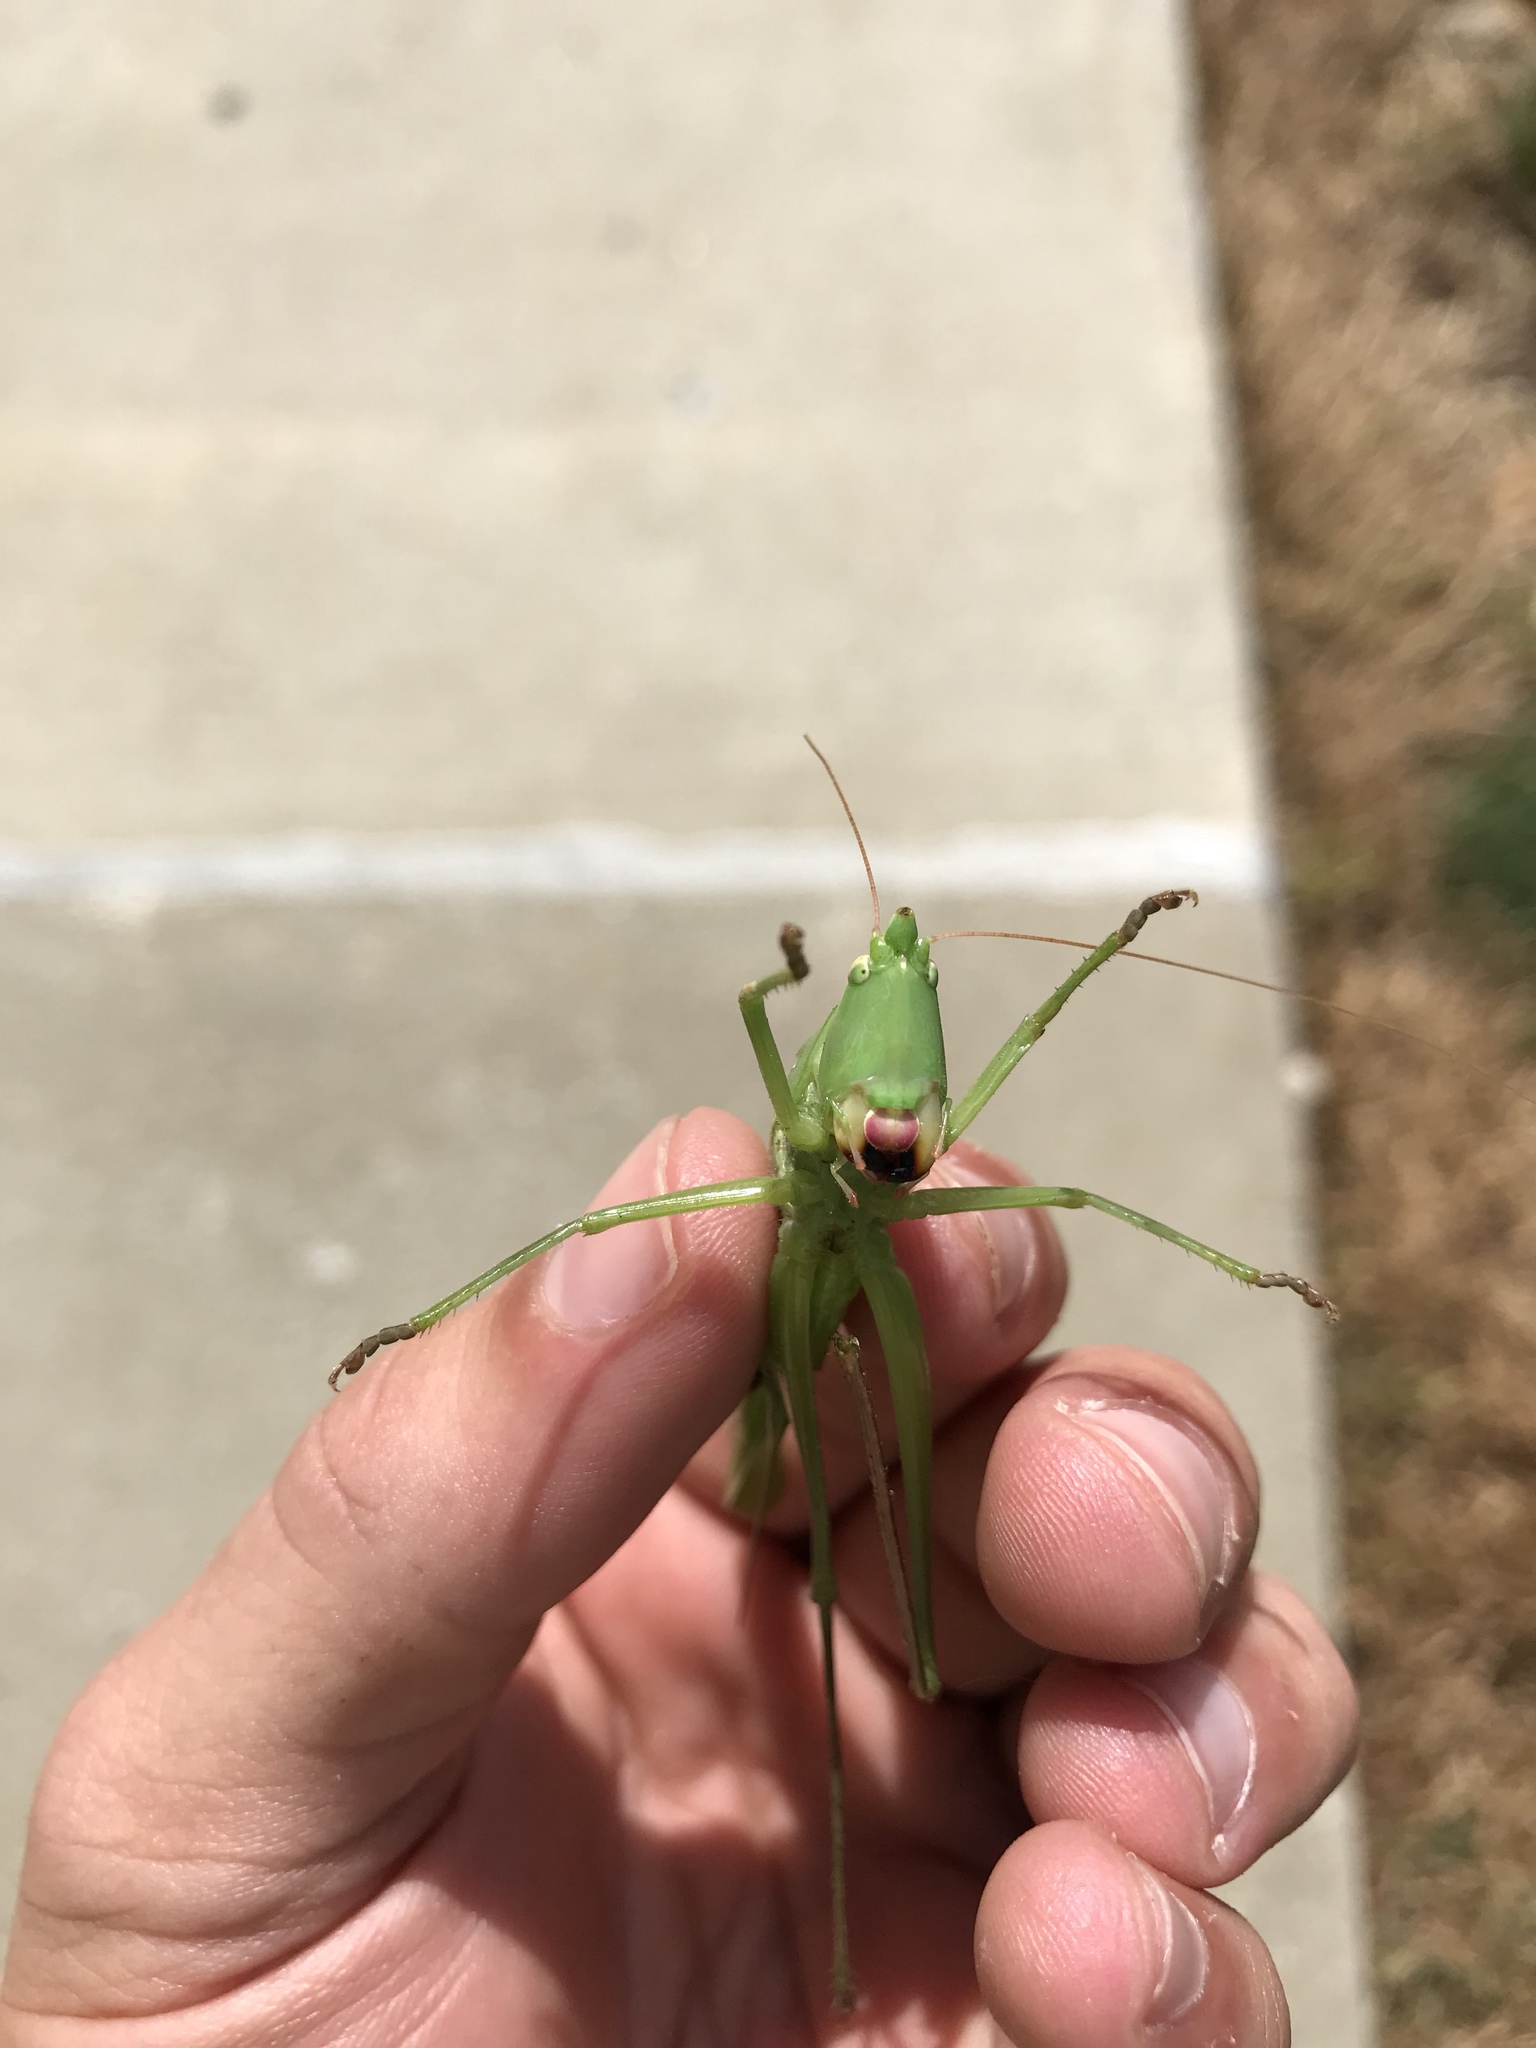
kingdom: Animalia
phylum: Arthropoda
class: Insecta
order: Orthoptera
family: Tettigoniidae
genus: Neoconocephalus
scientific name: Neoconocephalus robustus
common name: Robust conehead
